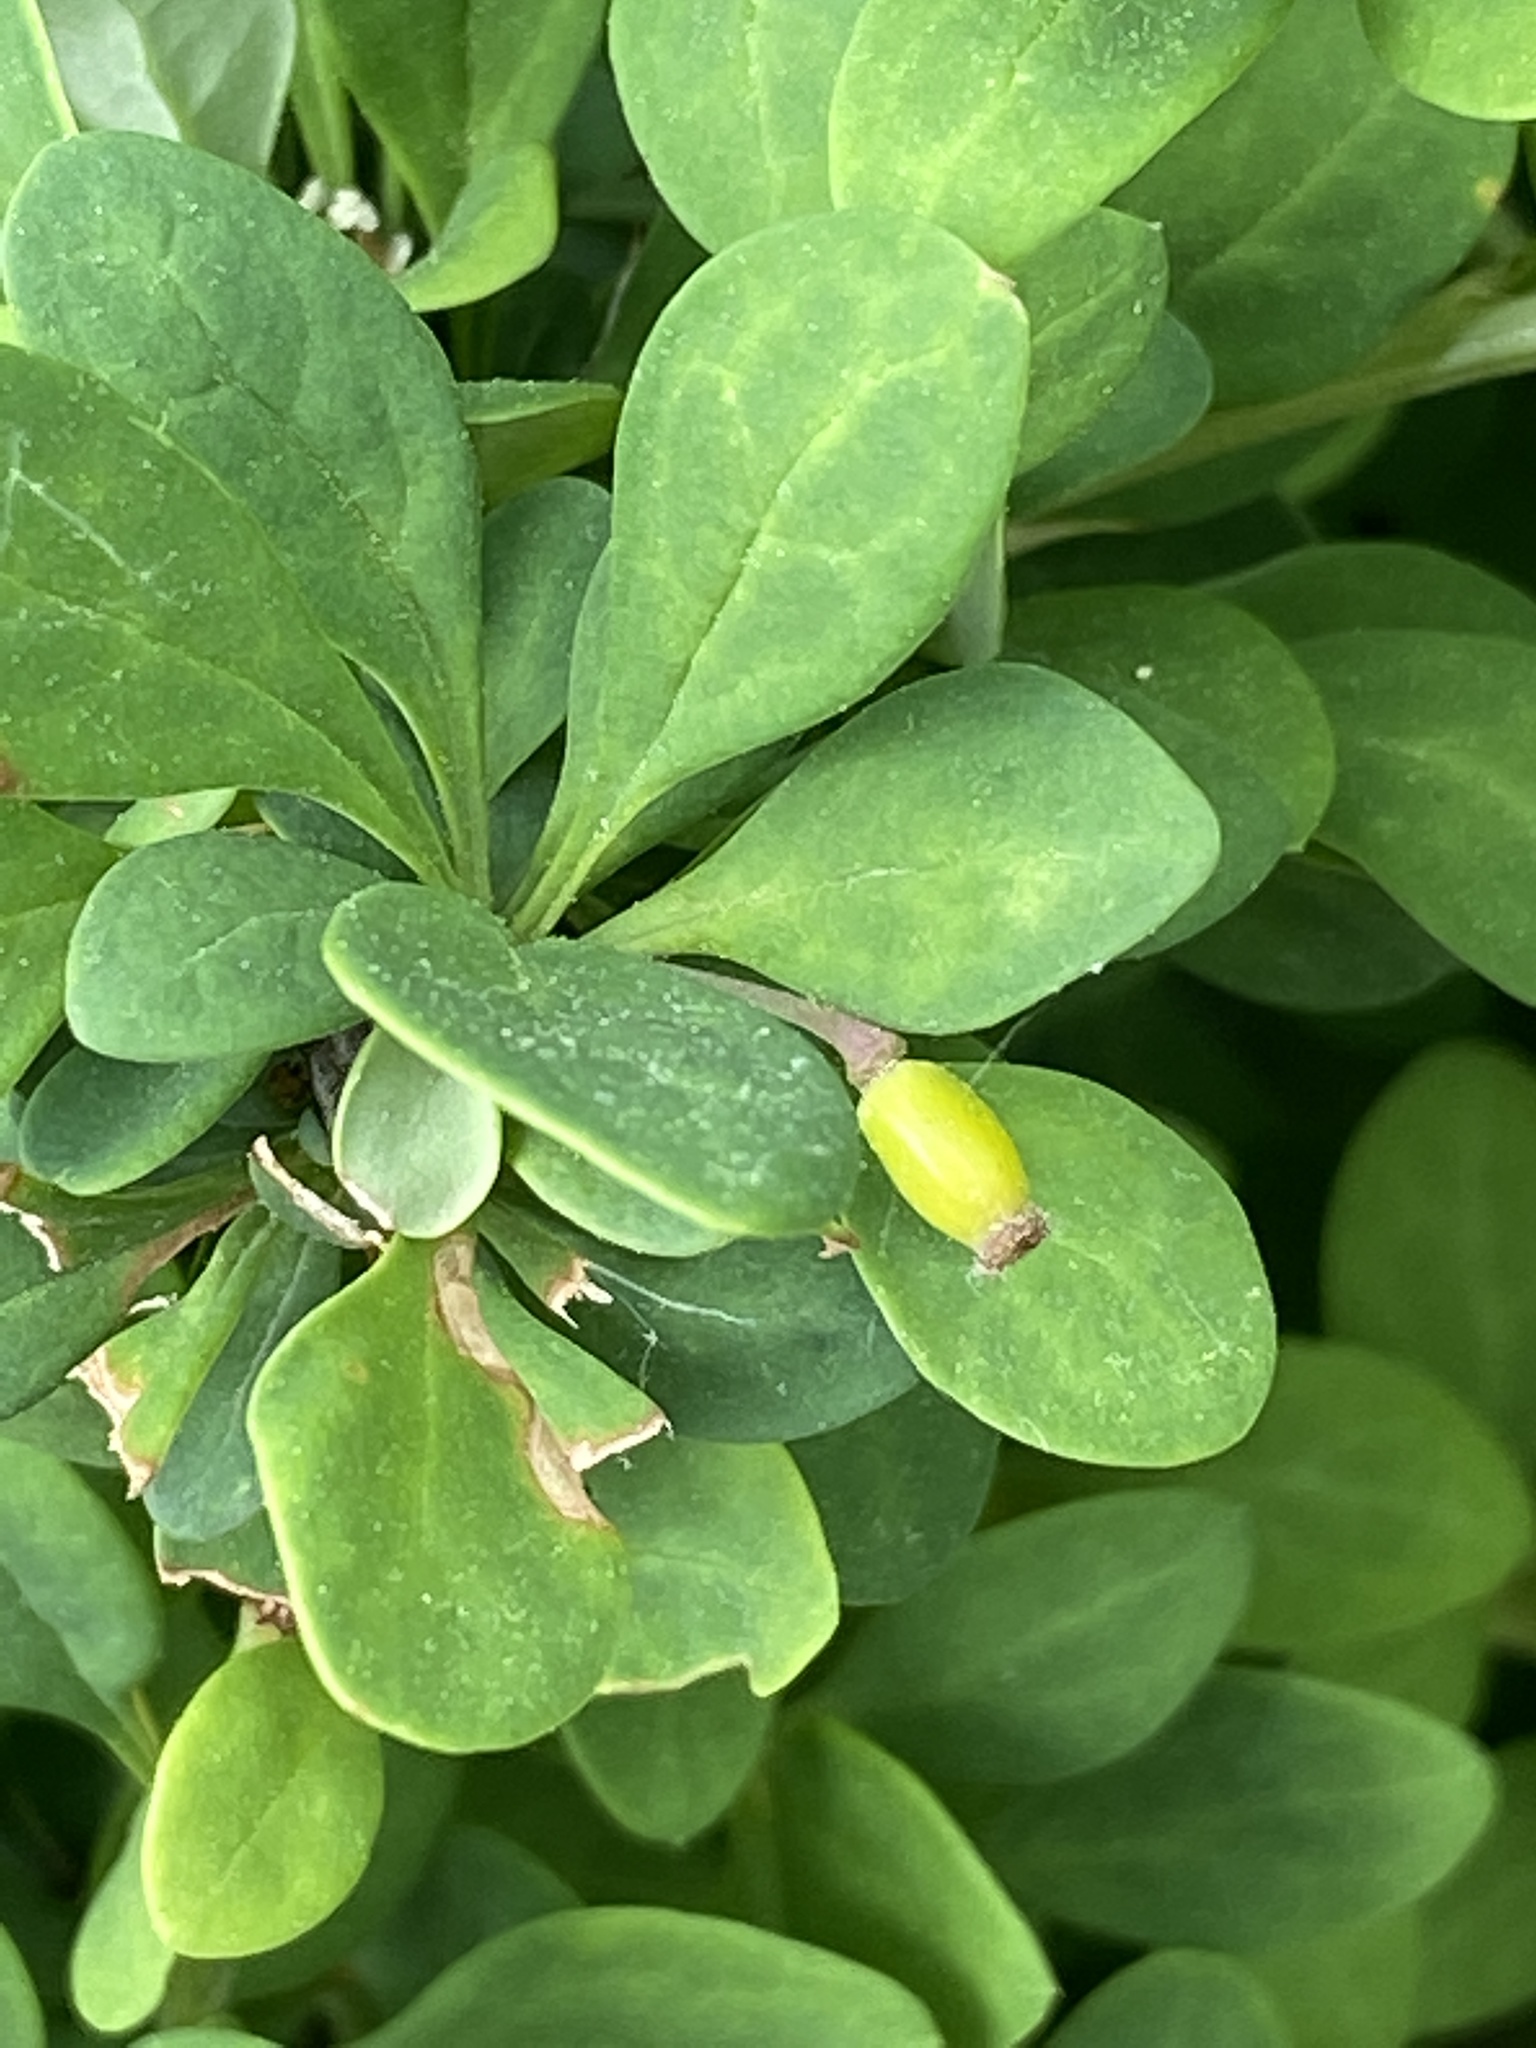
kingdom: Plantae
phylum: Tracheophyta
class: Magnoliopsida
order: Ranunculales
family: Berberidaceae
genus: Berberis
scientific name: Berberis thunbergii
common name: Japanese barberry
